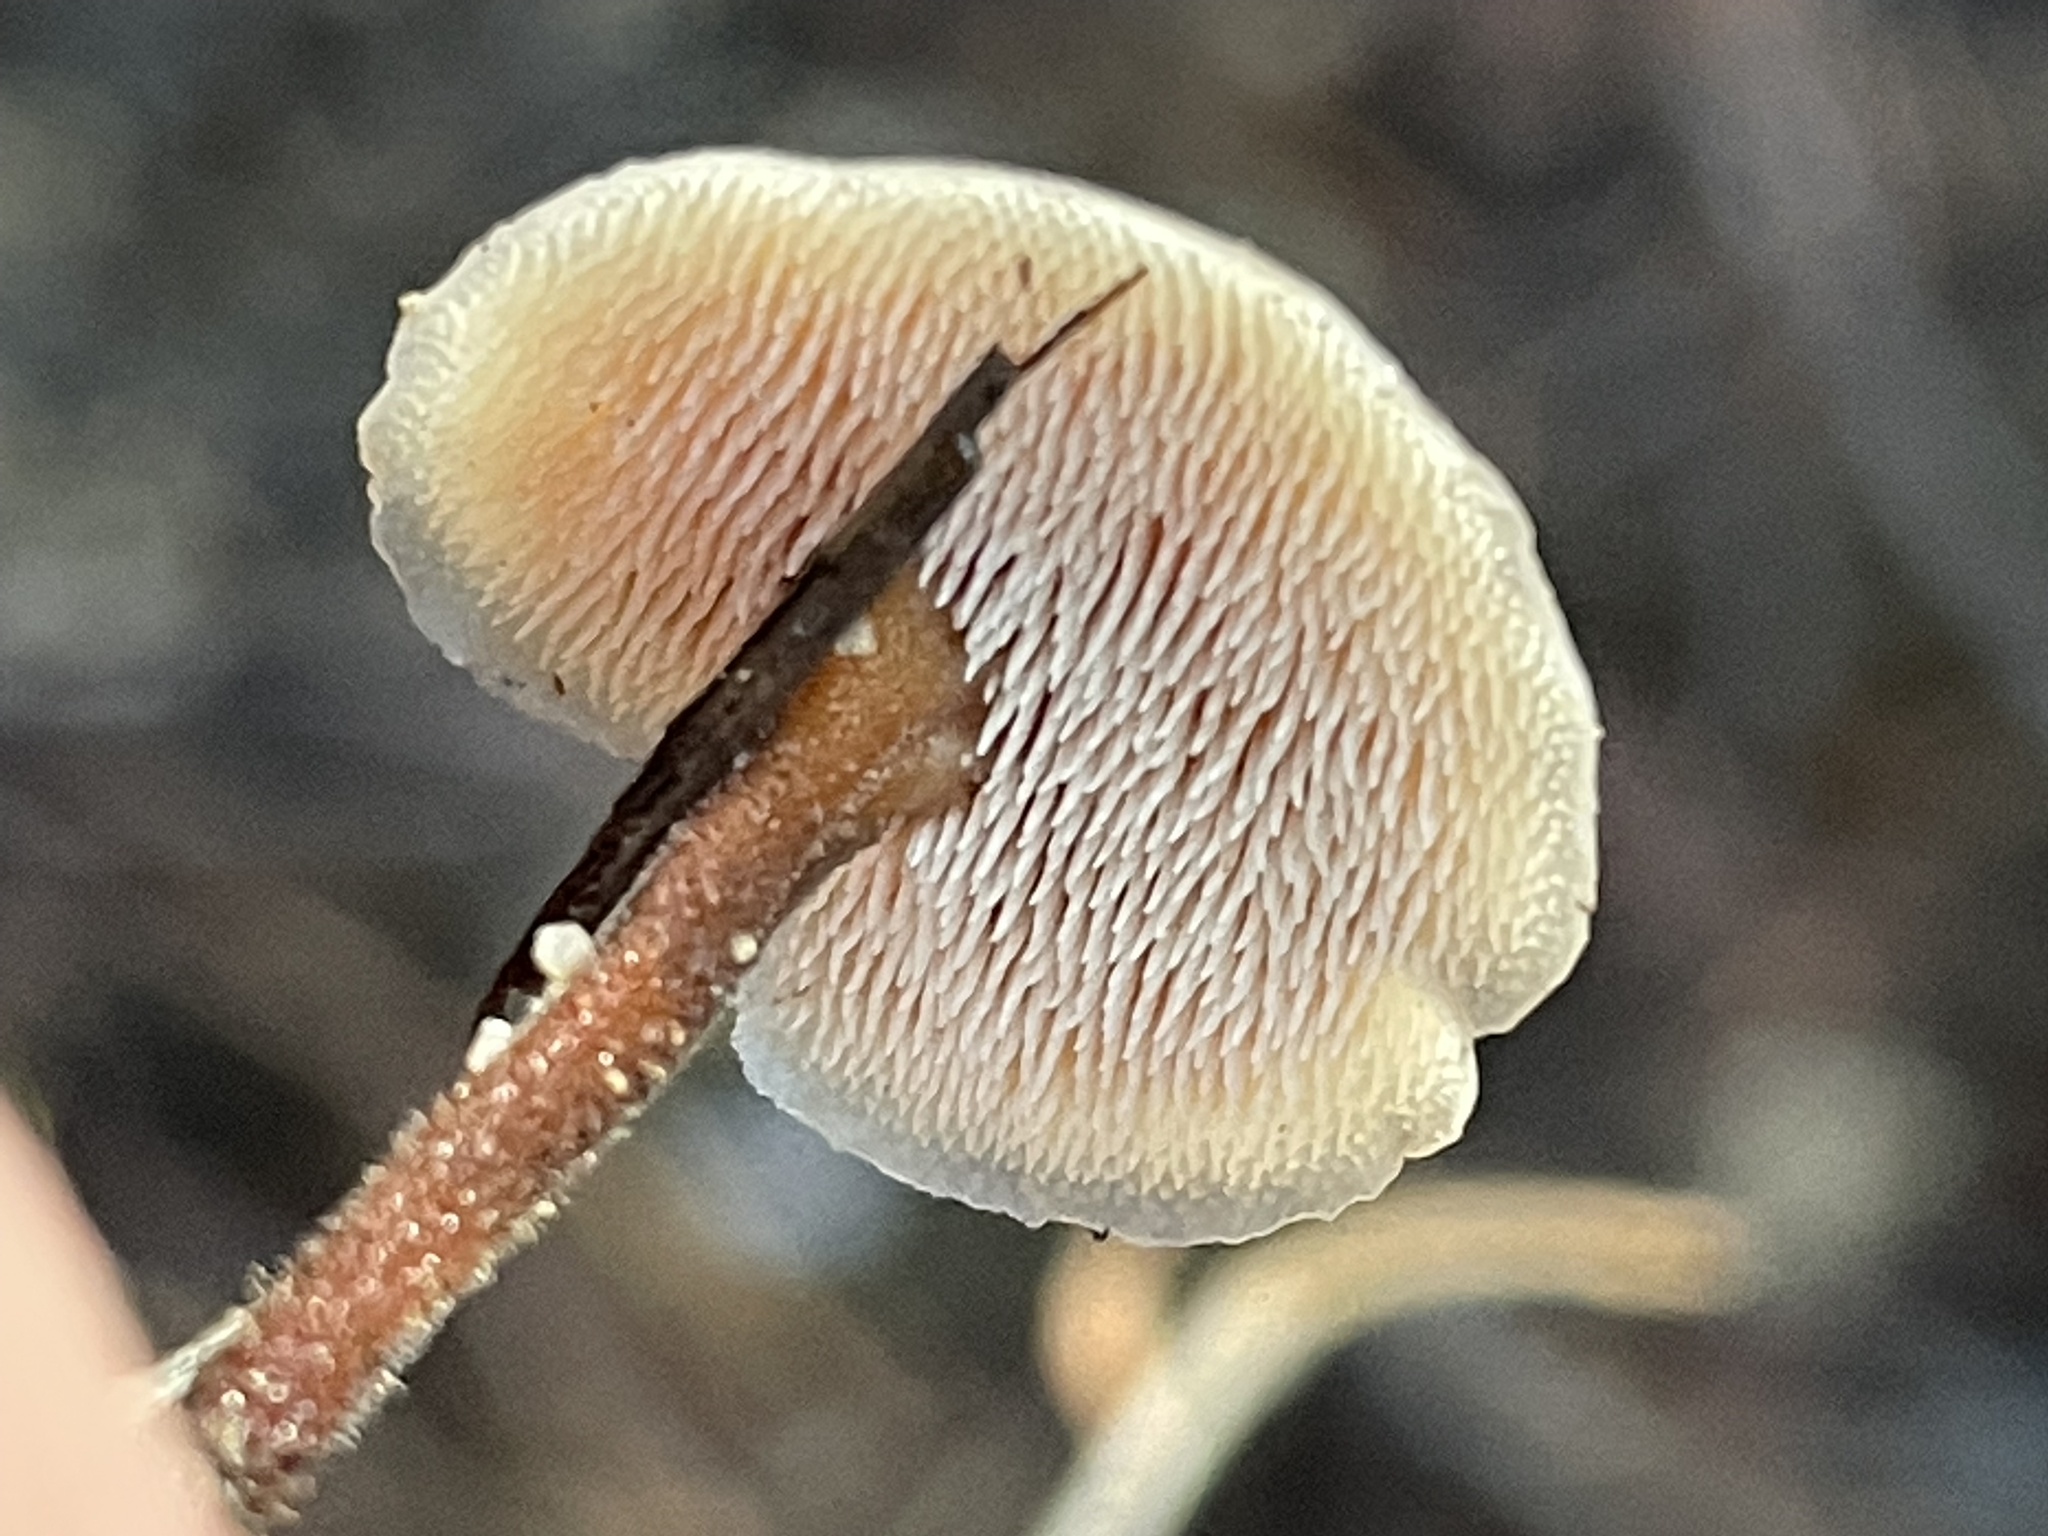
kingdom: Fungi
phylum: Basidiomycota
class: Agaricomycetes
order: Russulales
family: Auriscalpiaceae
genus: Auriscalpium
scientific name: Auriscalpium vulgare
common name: Earpick fungus
